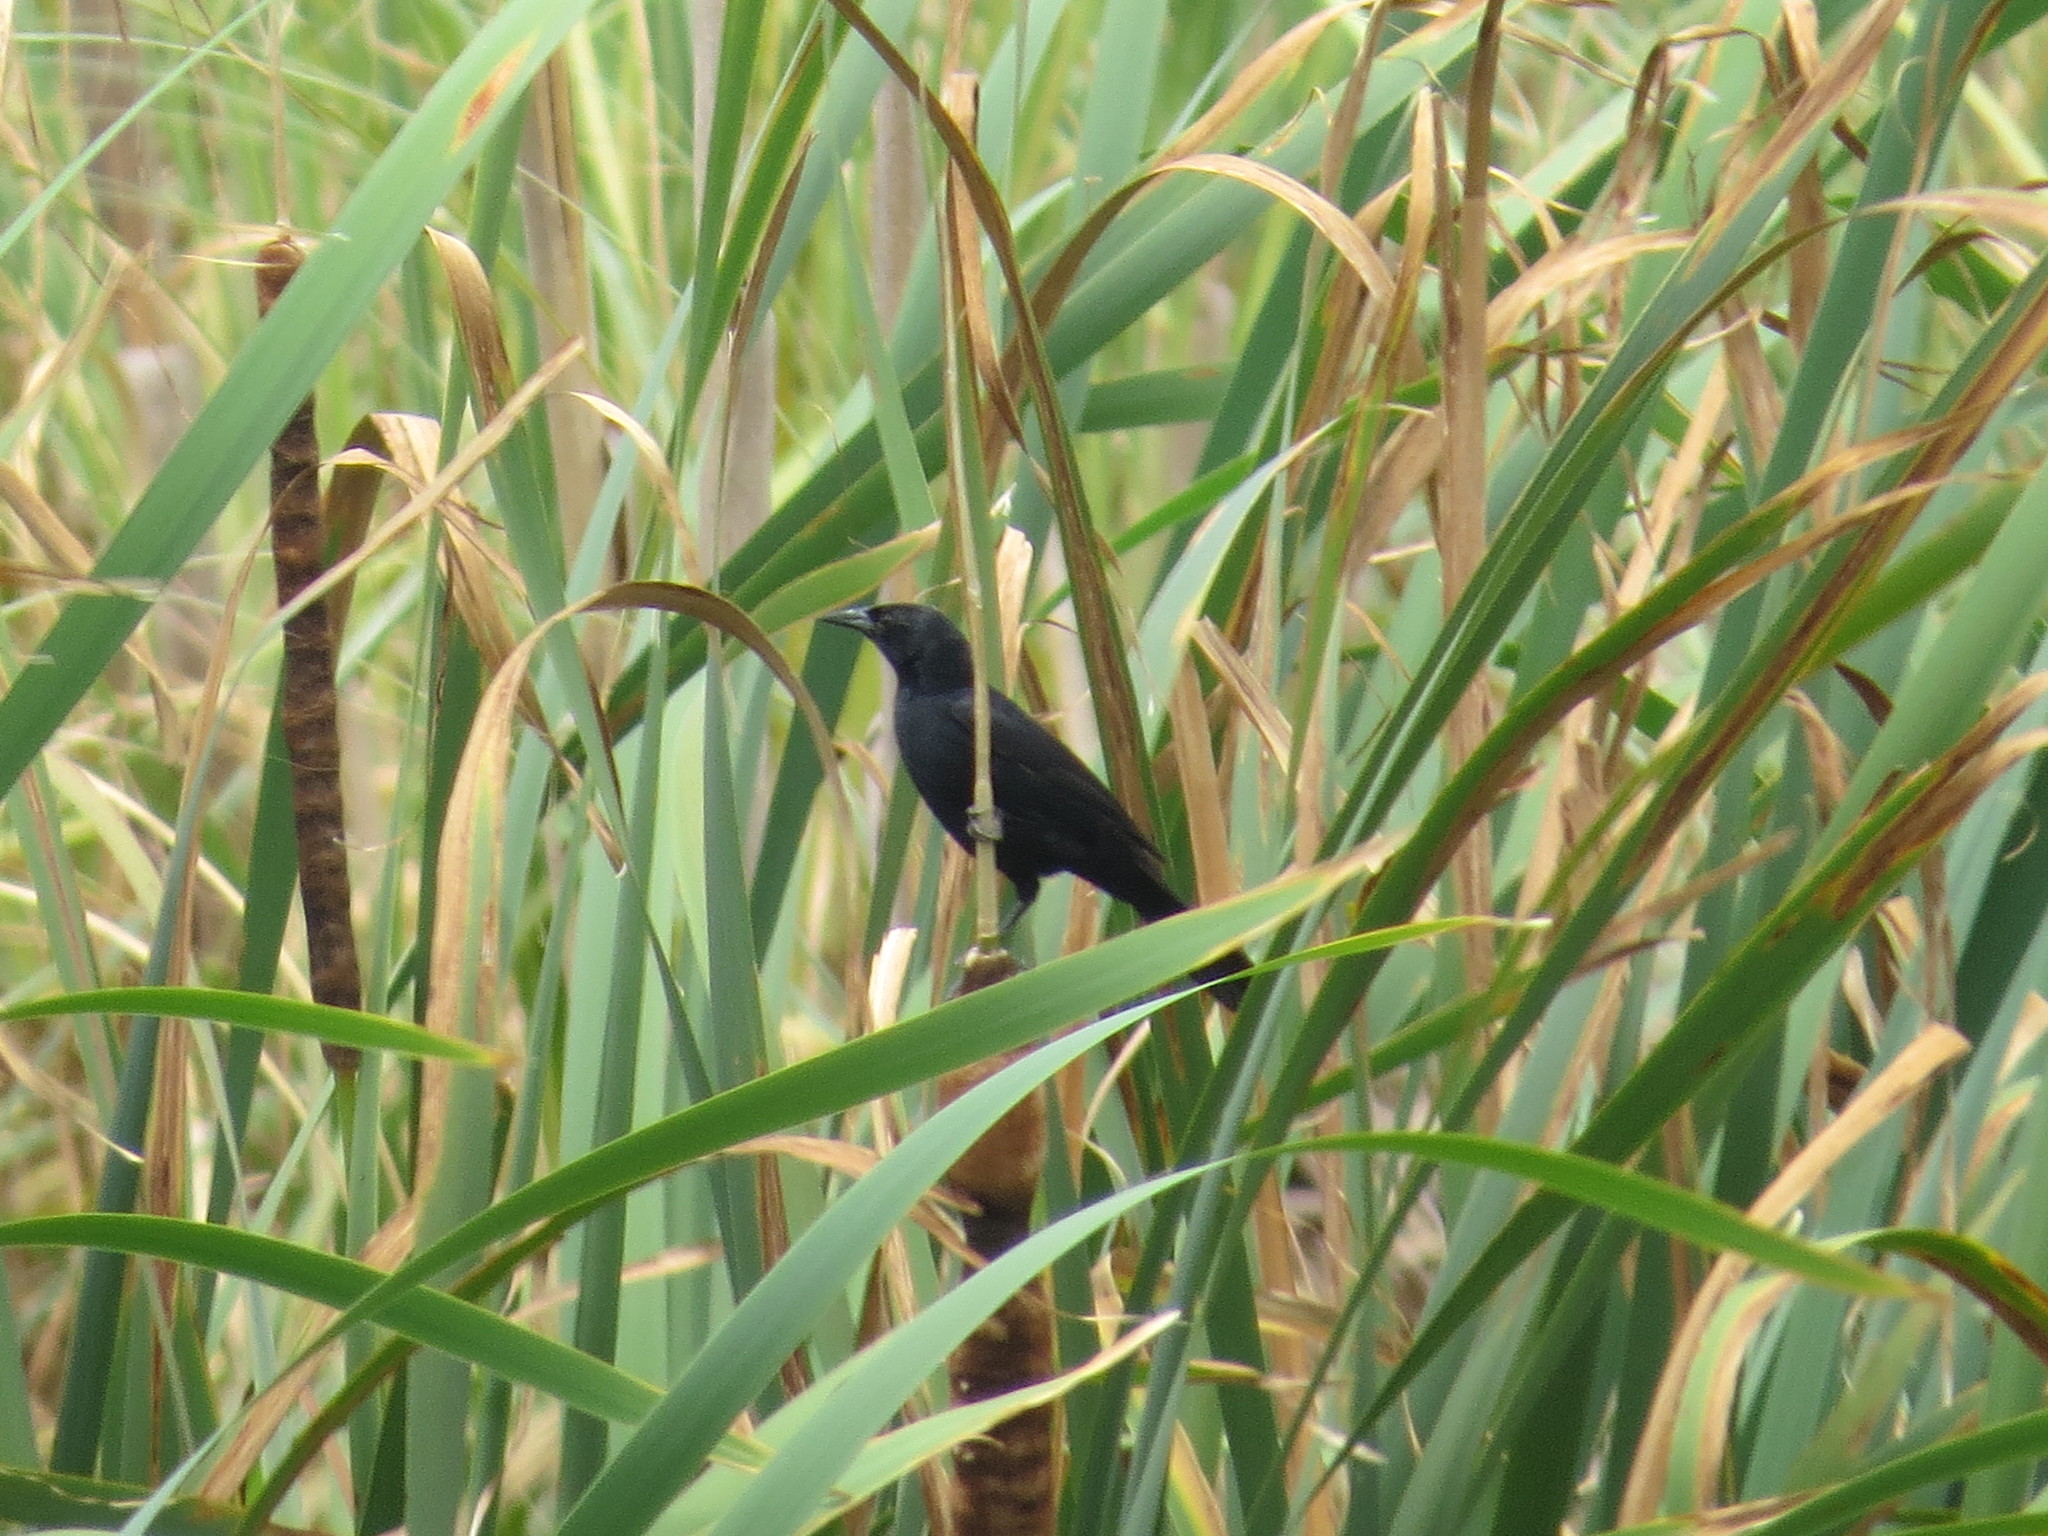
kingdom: Animalia
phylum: Chordata
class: Aves
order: Passeriformes
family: Icteridae
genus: Agelasticus
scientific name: Agelasticus cyanopus
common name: Unicolored blackbird
